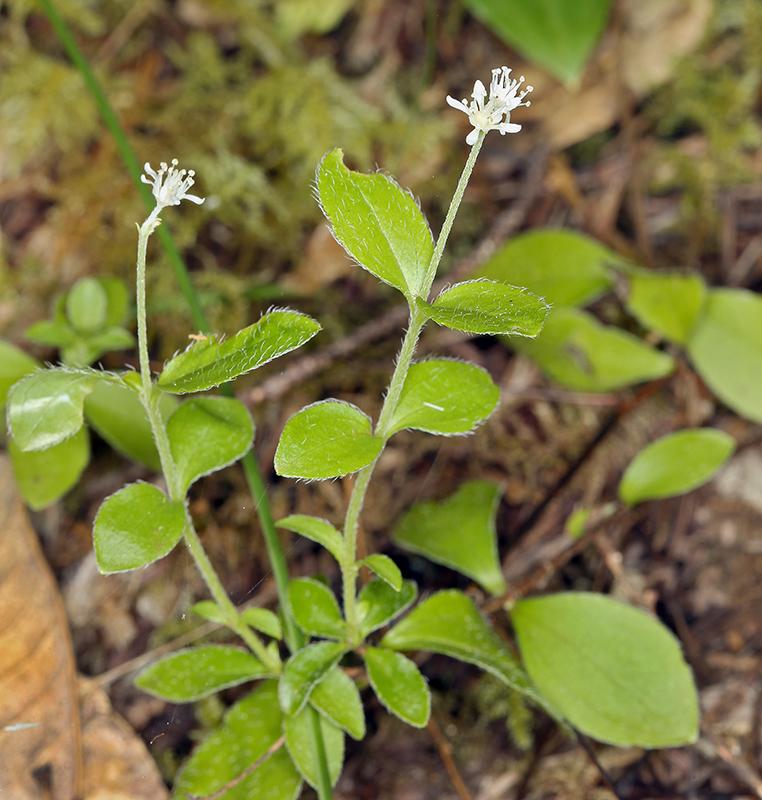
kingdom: Plantae
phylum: Tracheophyta
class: Magnoliopsida
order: Cornales
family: Hydrangeaceae
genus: Whipplea
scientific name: Whipplea modesta
